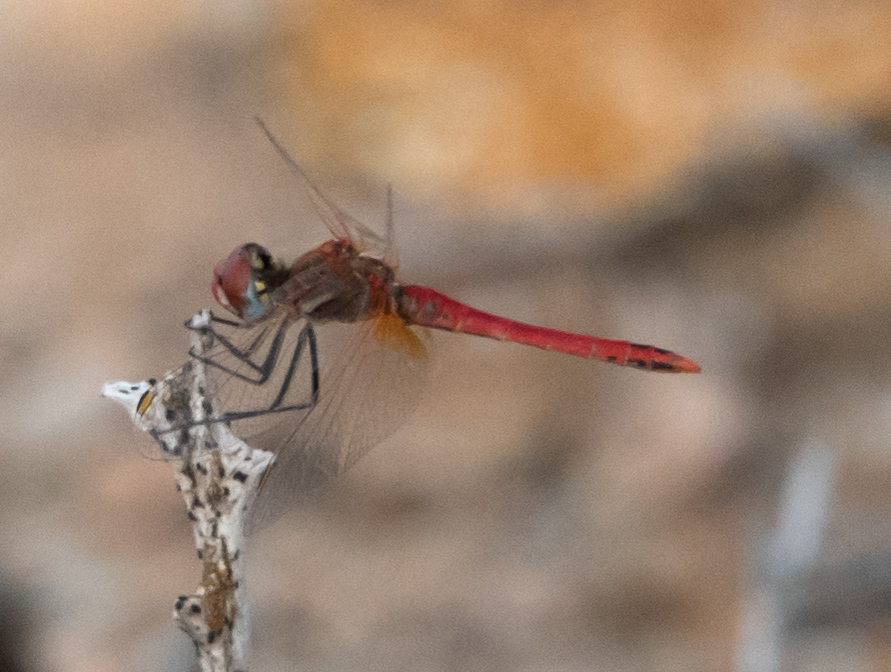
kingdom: Animalia
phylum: Arthropoda
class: Insecta
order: Odonata
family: Libellulidae
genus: Sympetrum
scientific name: Sympetrum fonscolombii
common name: Red-veined darter
